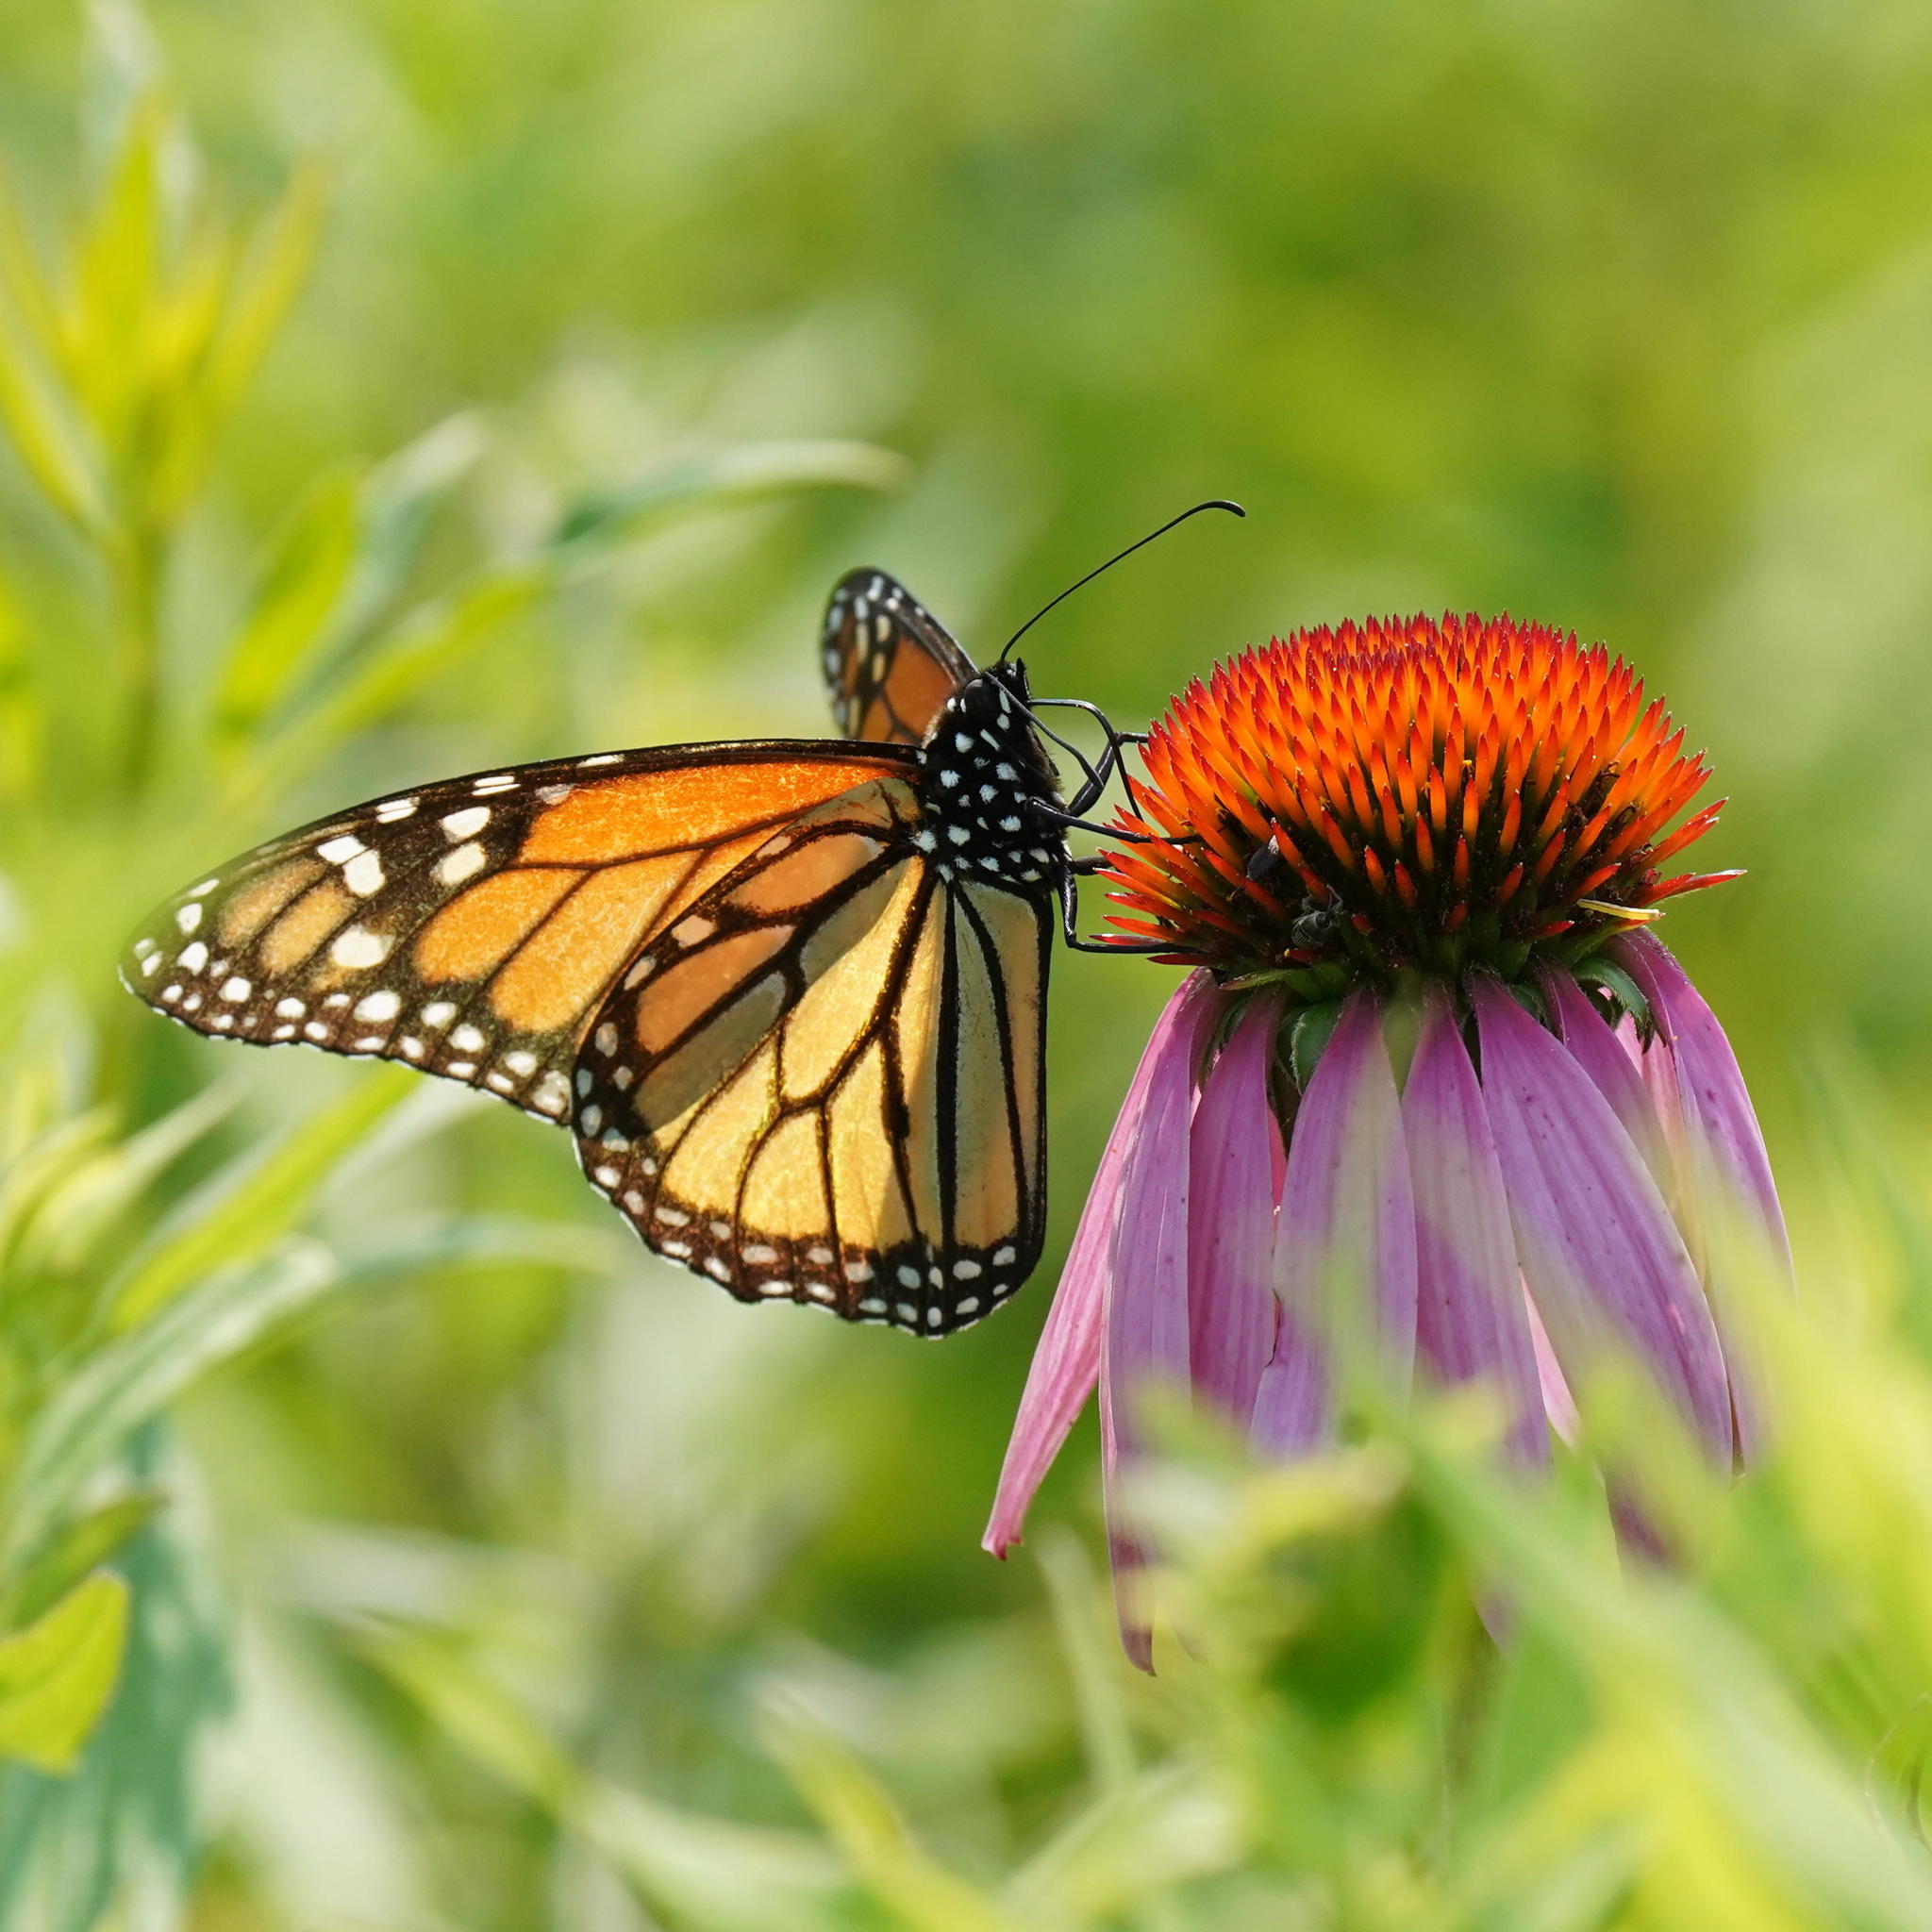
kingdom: Animalia
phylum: Arthropoda
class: Insecta
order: Lepidoptera
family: Nymphalidae
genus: Danaus
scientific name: Danaus plexippus
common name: Monarch
